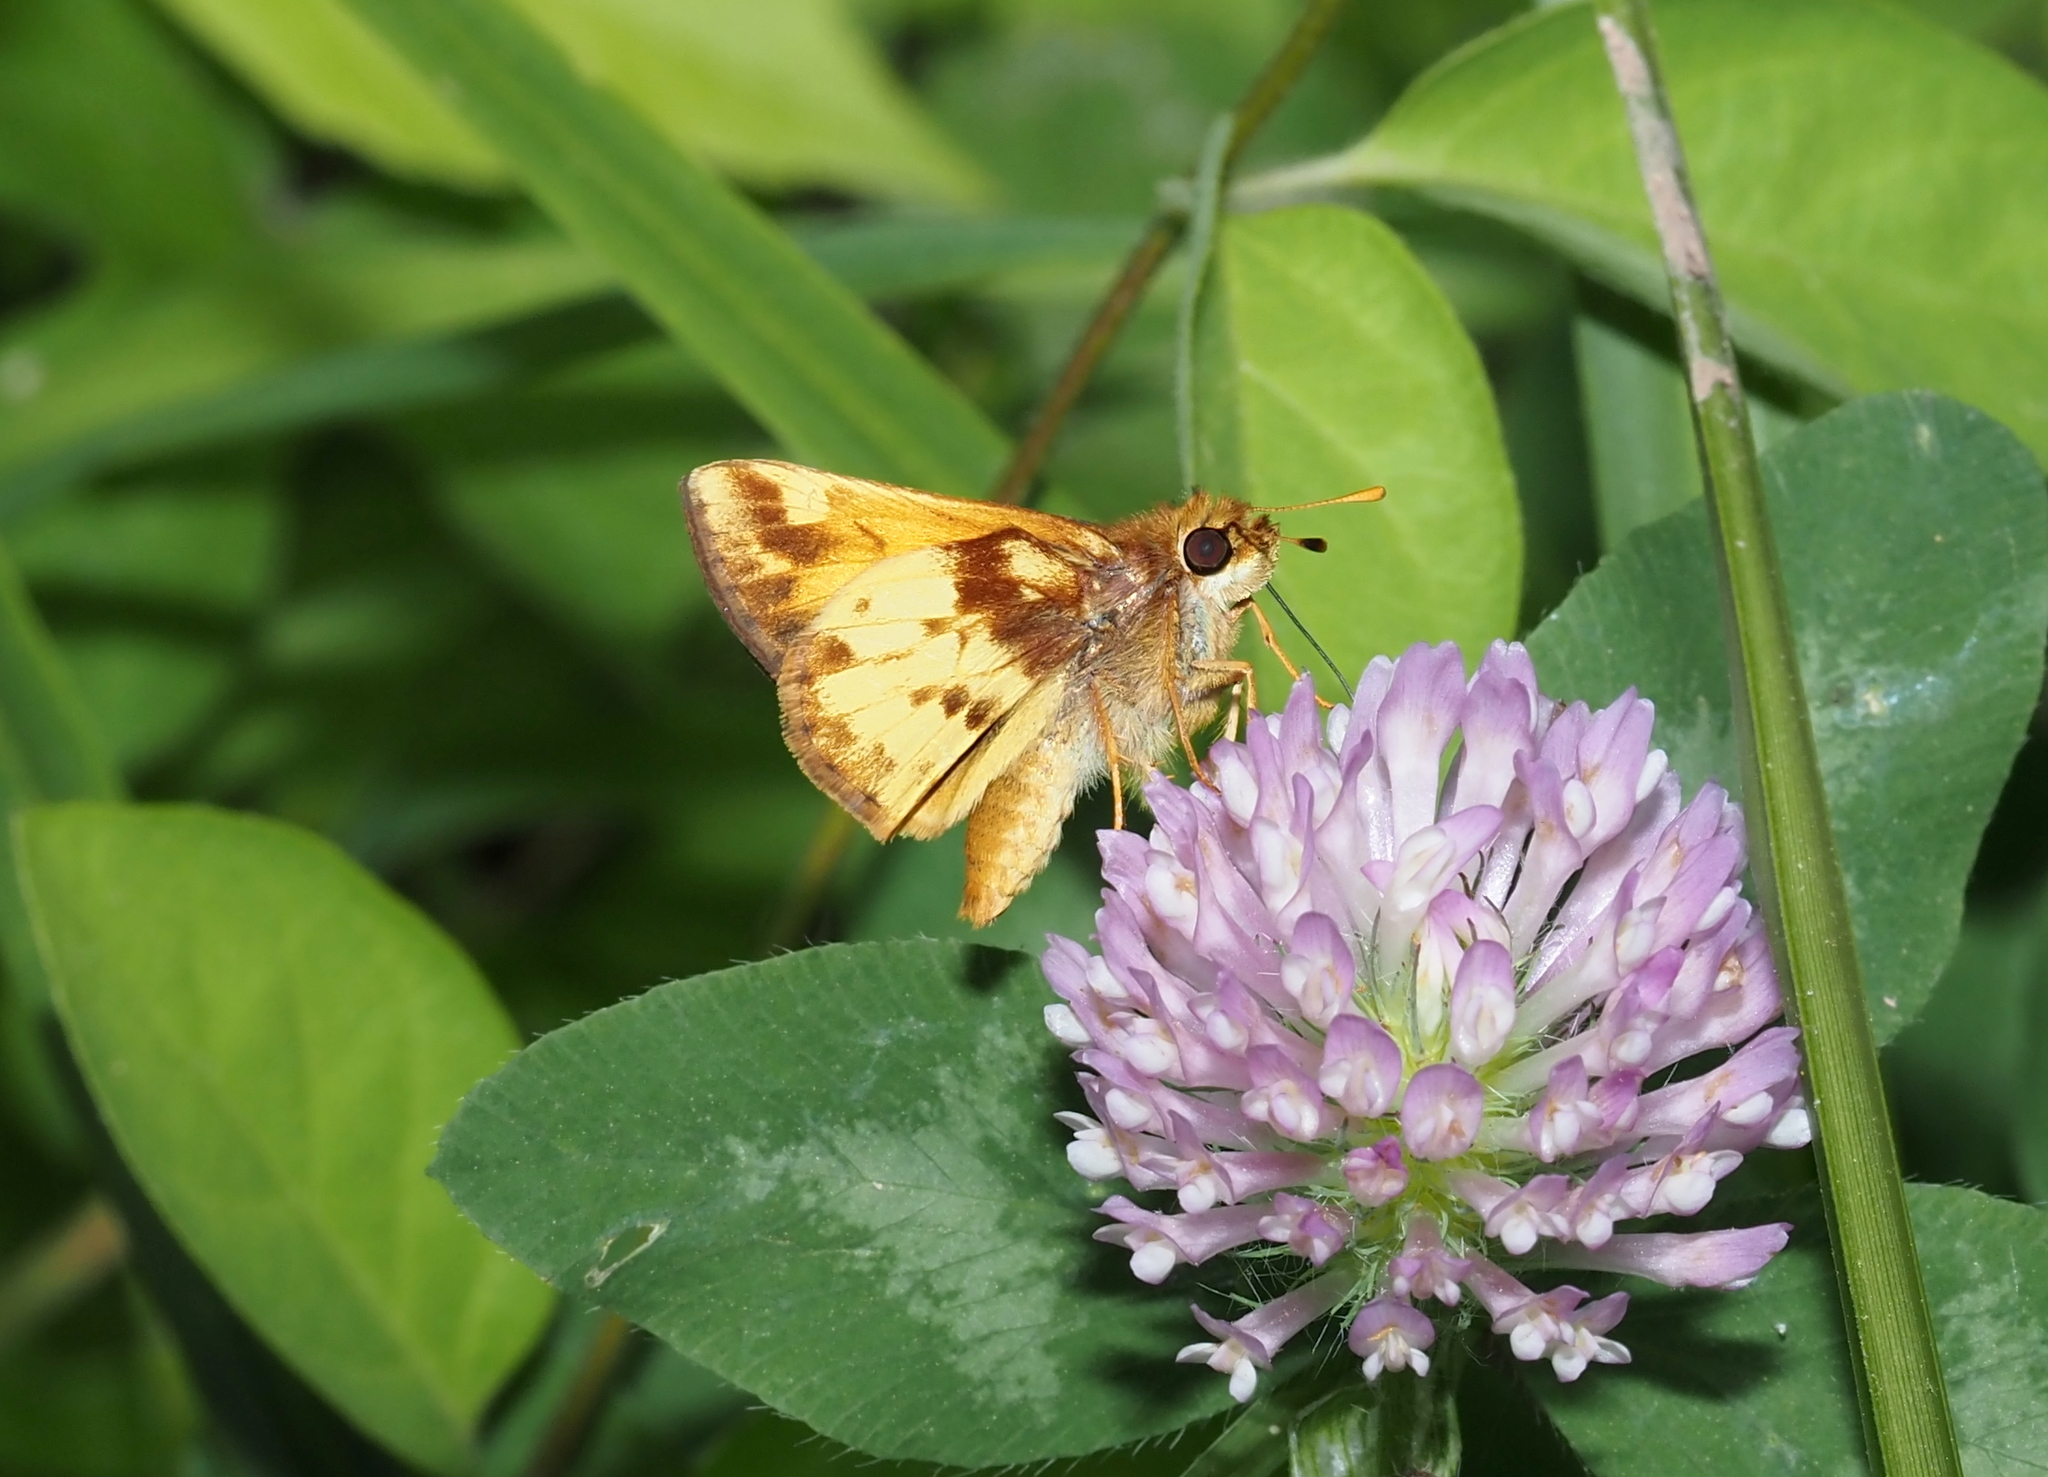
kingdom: Animalia
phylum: Arthropoda
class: Insecta
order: Lepidoptera
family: Hesperiidae
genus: Lon
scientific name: Lon zabulon
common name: Zabulon skipper
